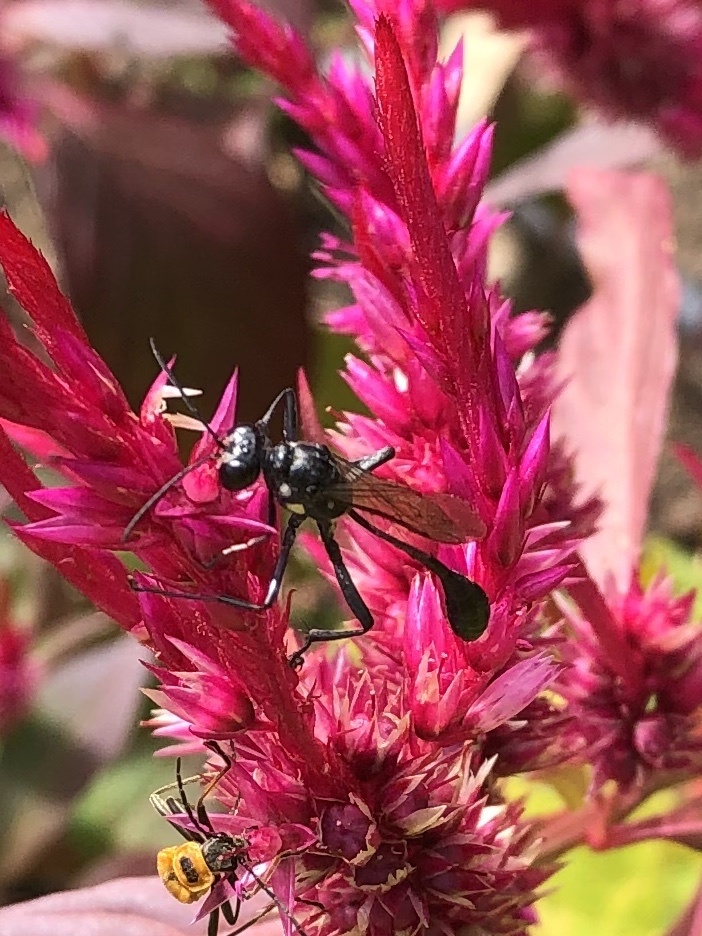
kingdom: Animalia
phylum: Arthropoda
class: Insecta
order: Hymenoptera
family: Sphecidae
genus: Eremnophila
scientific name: Eremnophila aureonotata
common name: Gold-marked thread-waisted wasp
